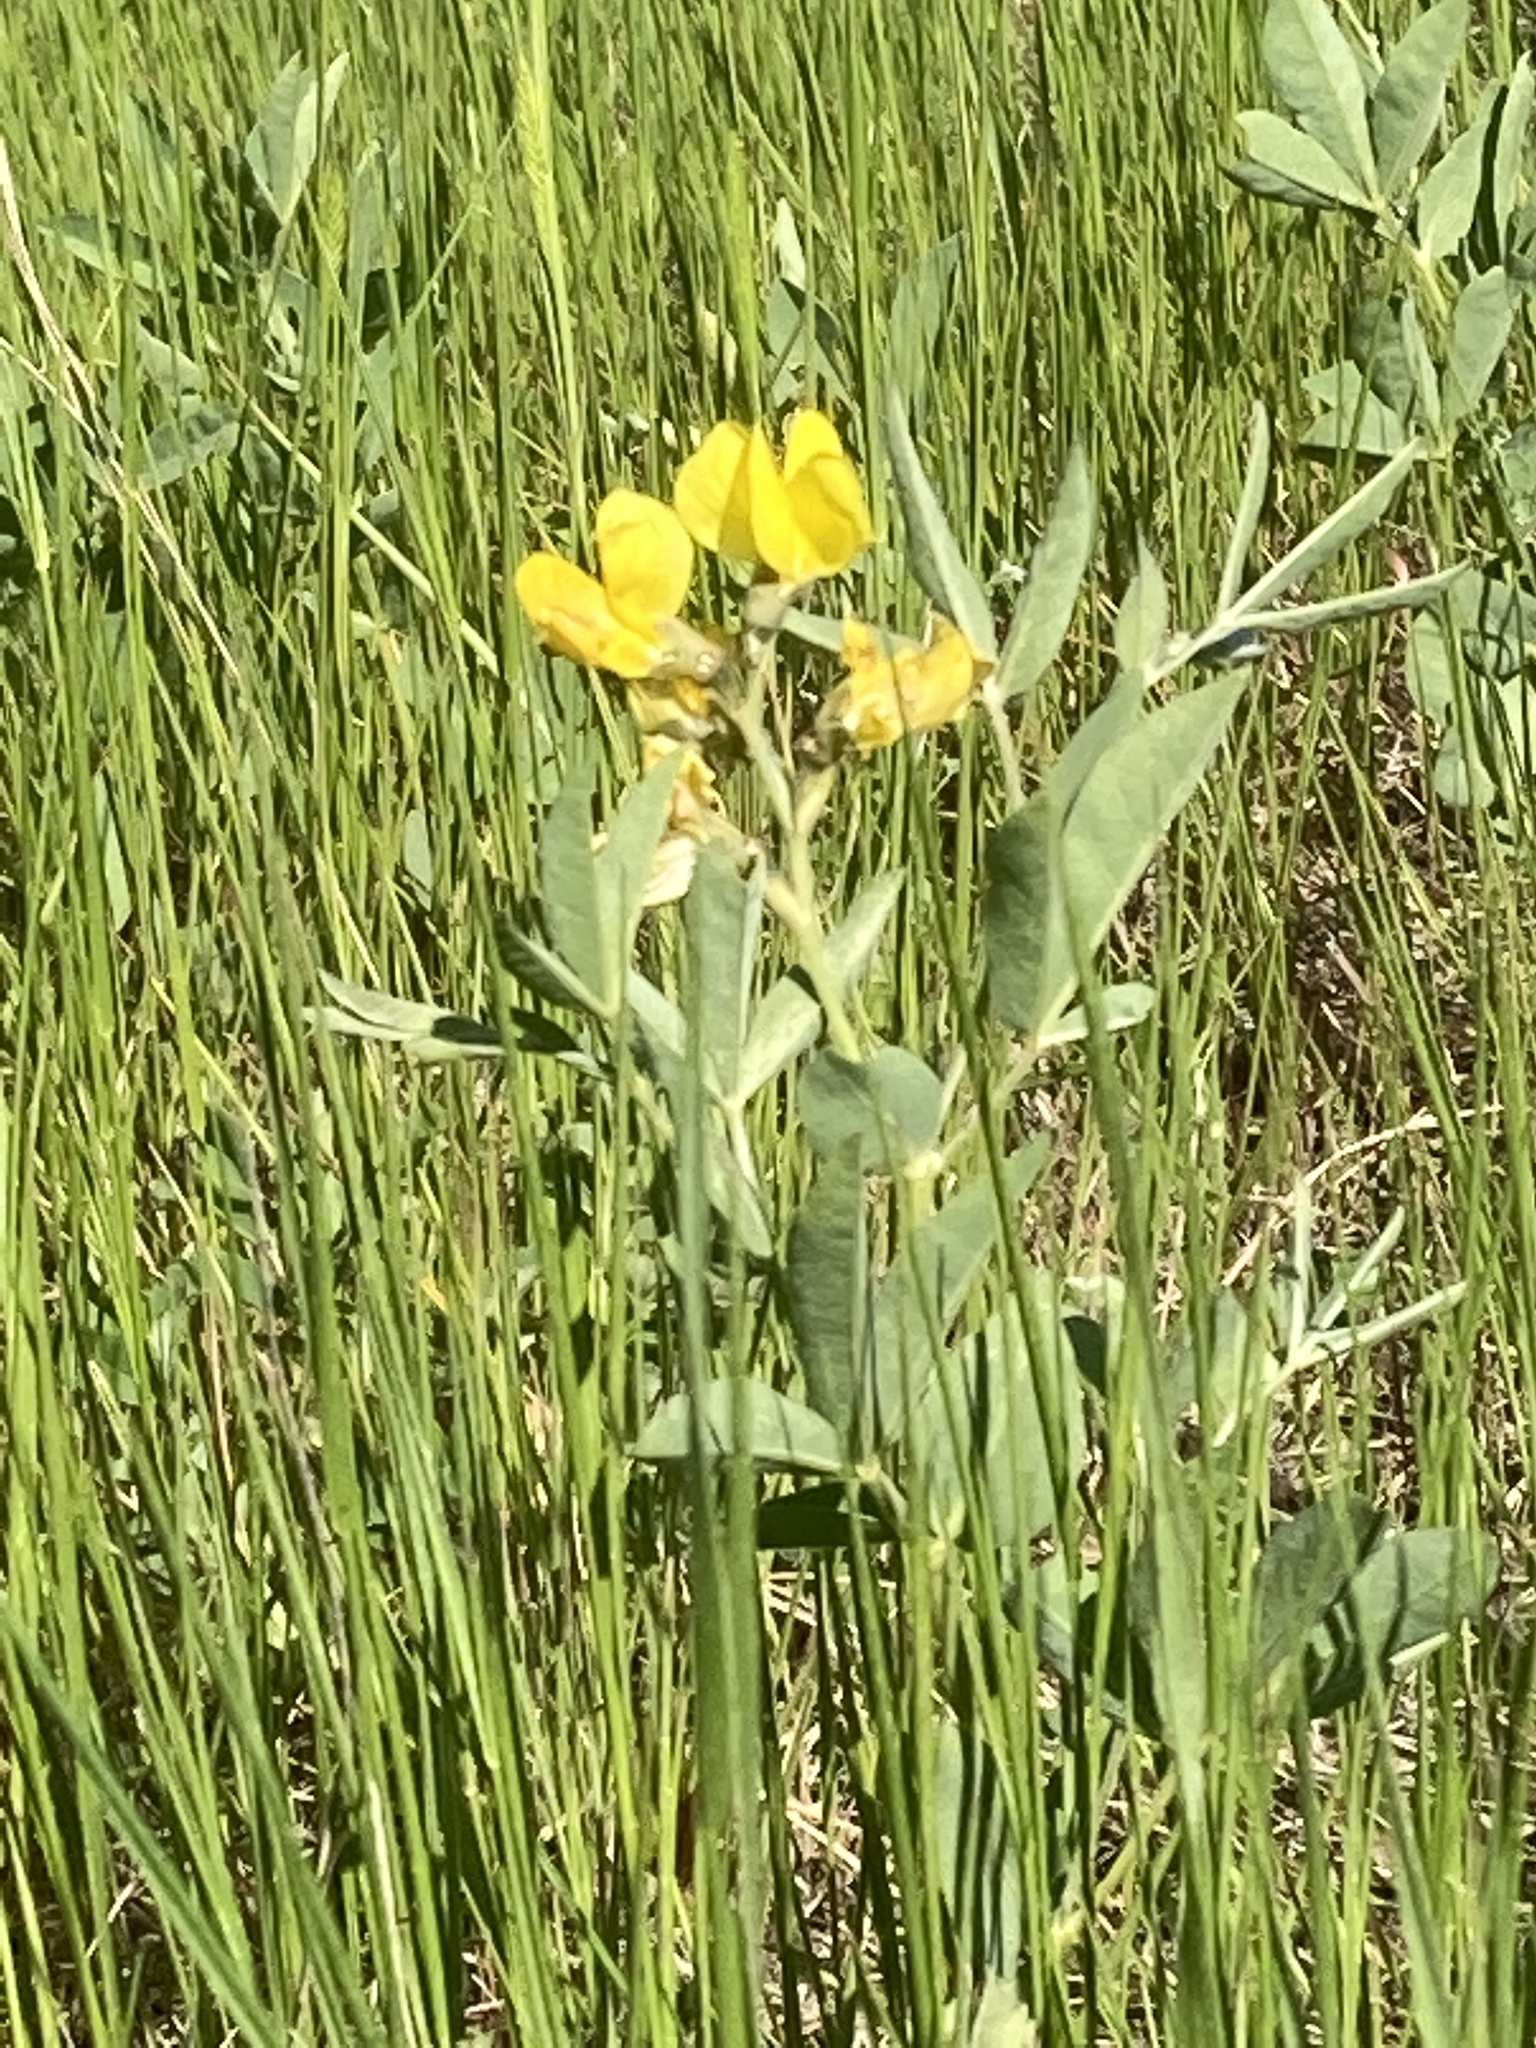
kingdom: Plantae
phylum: Tracheophyta
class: Magnoliopsida
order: Fabales
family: Fabaceae
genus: Thermopsis
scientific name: Thermopsis rhombifolia
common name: Circle-pod-pea
